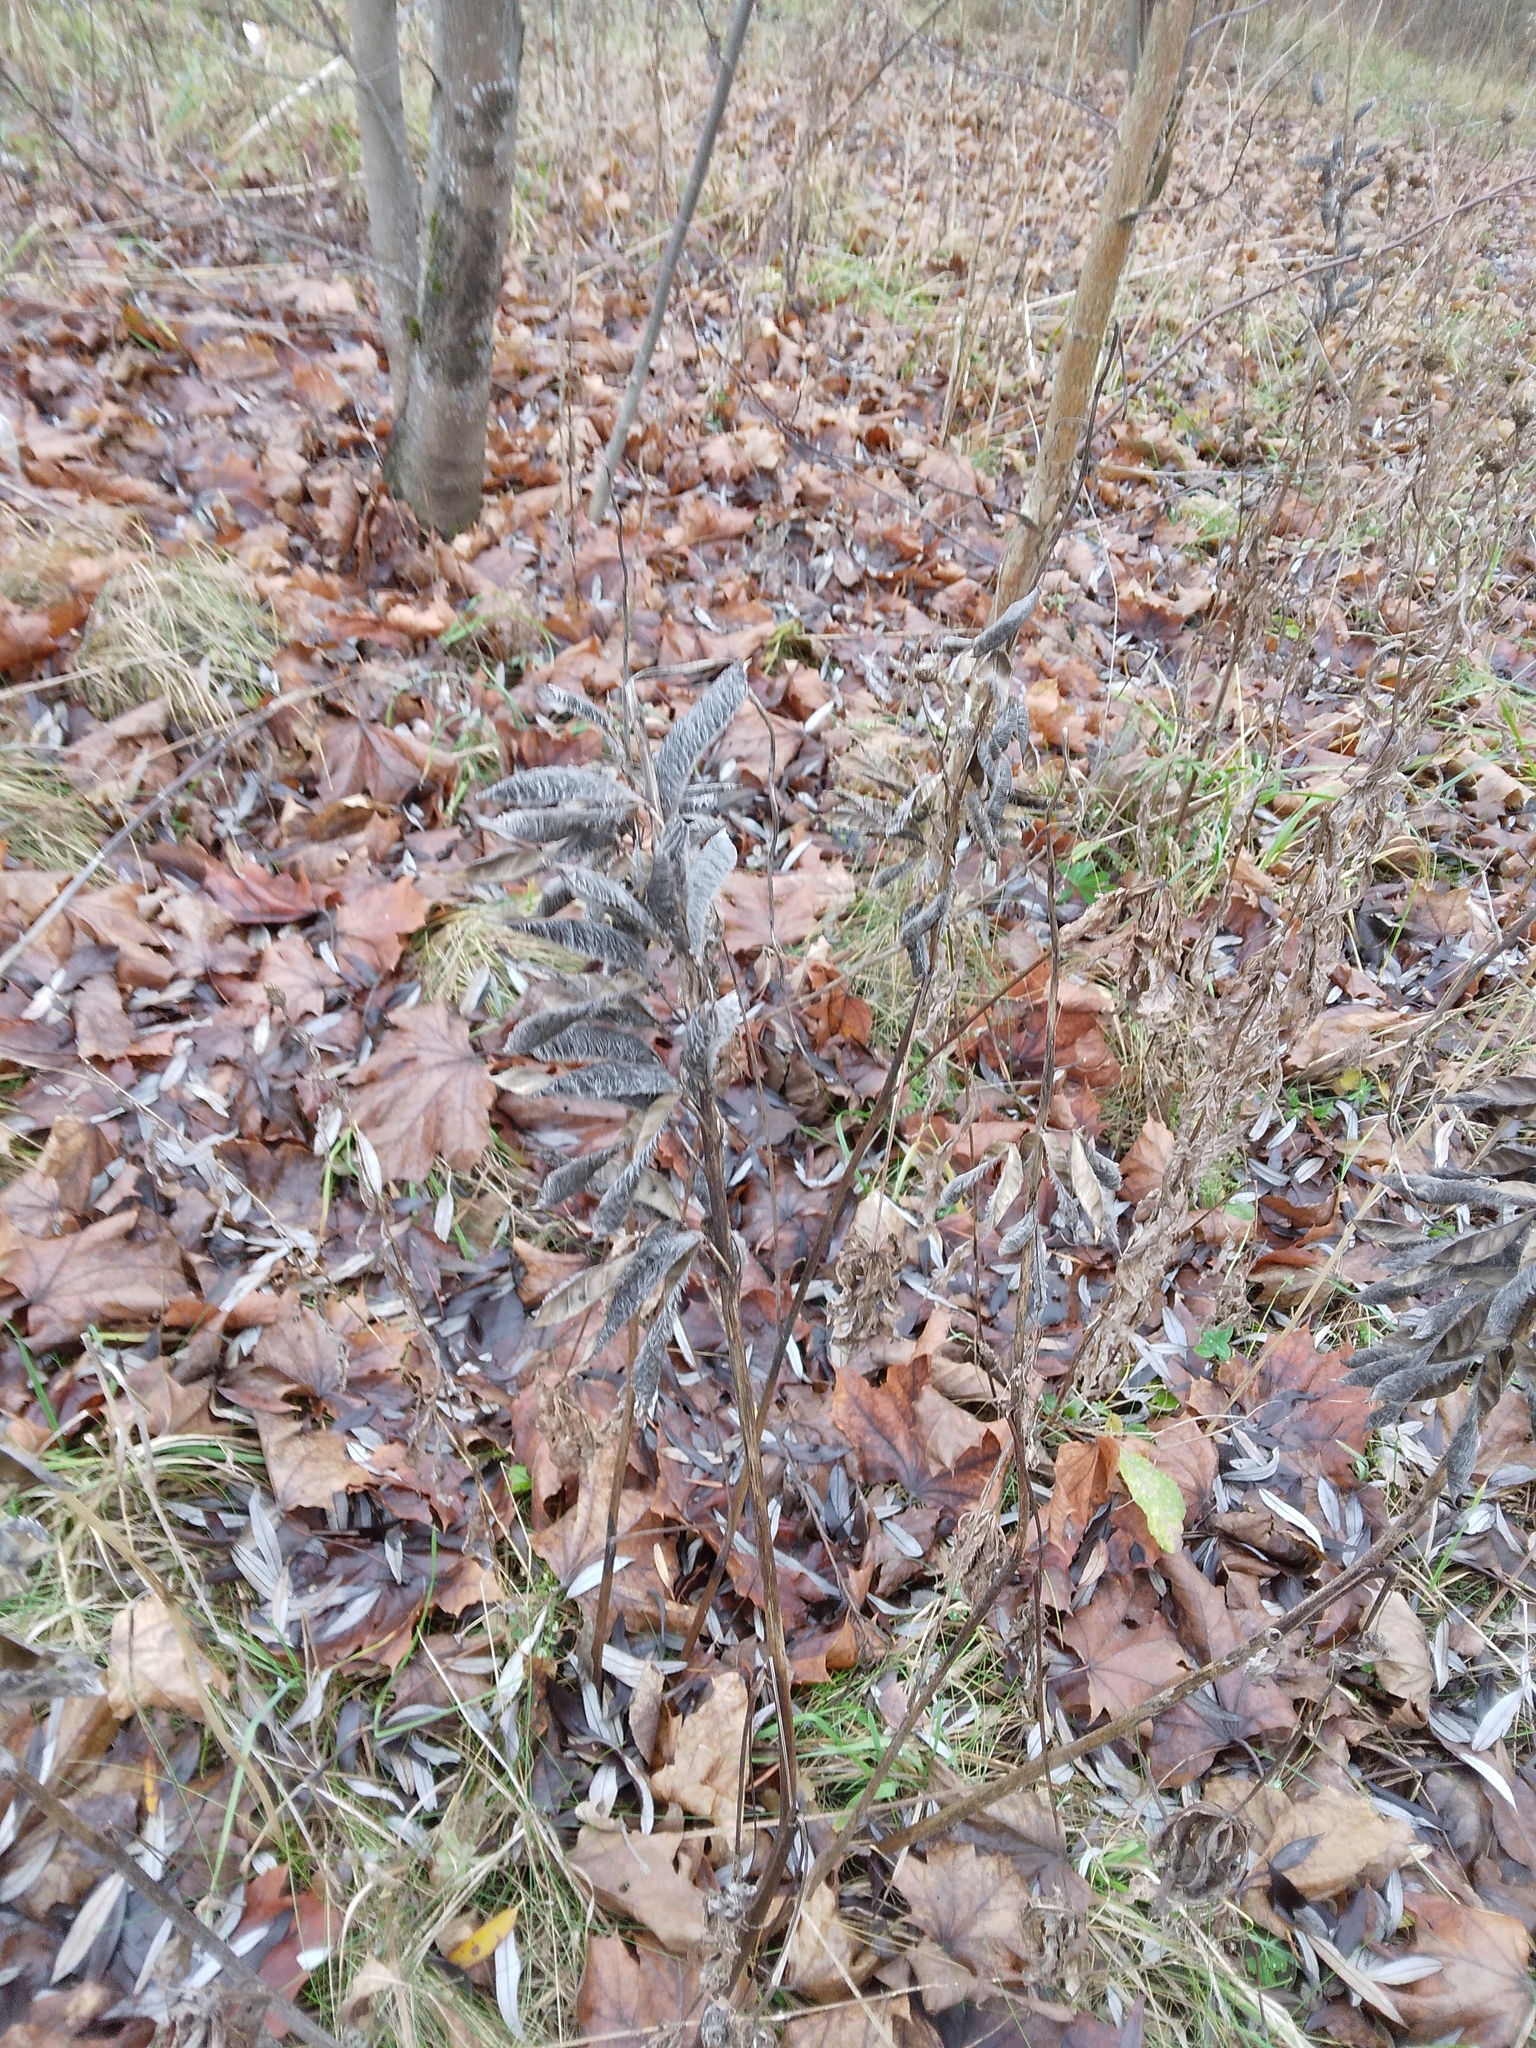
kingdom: Plantae
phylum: Tracheophyta
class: Magnoliopsida
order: Fabales
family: Fabaceae
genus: Lupinus
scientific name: Lupinus polyphyllus
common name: Garden lupin
